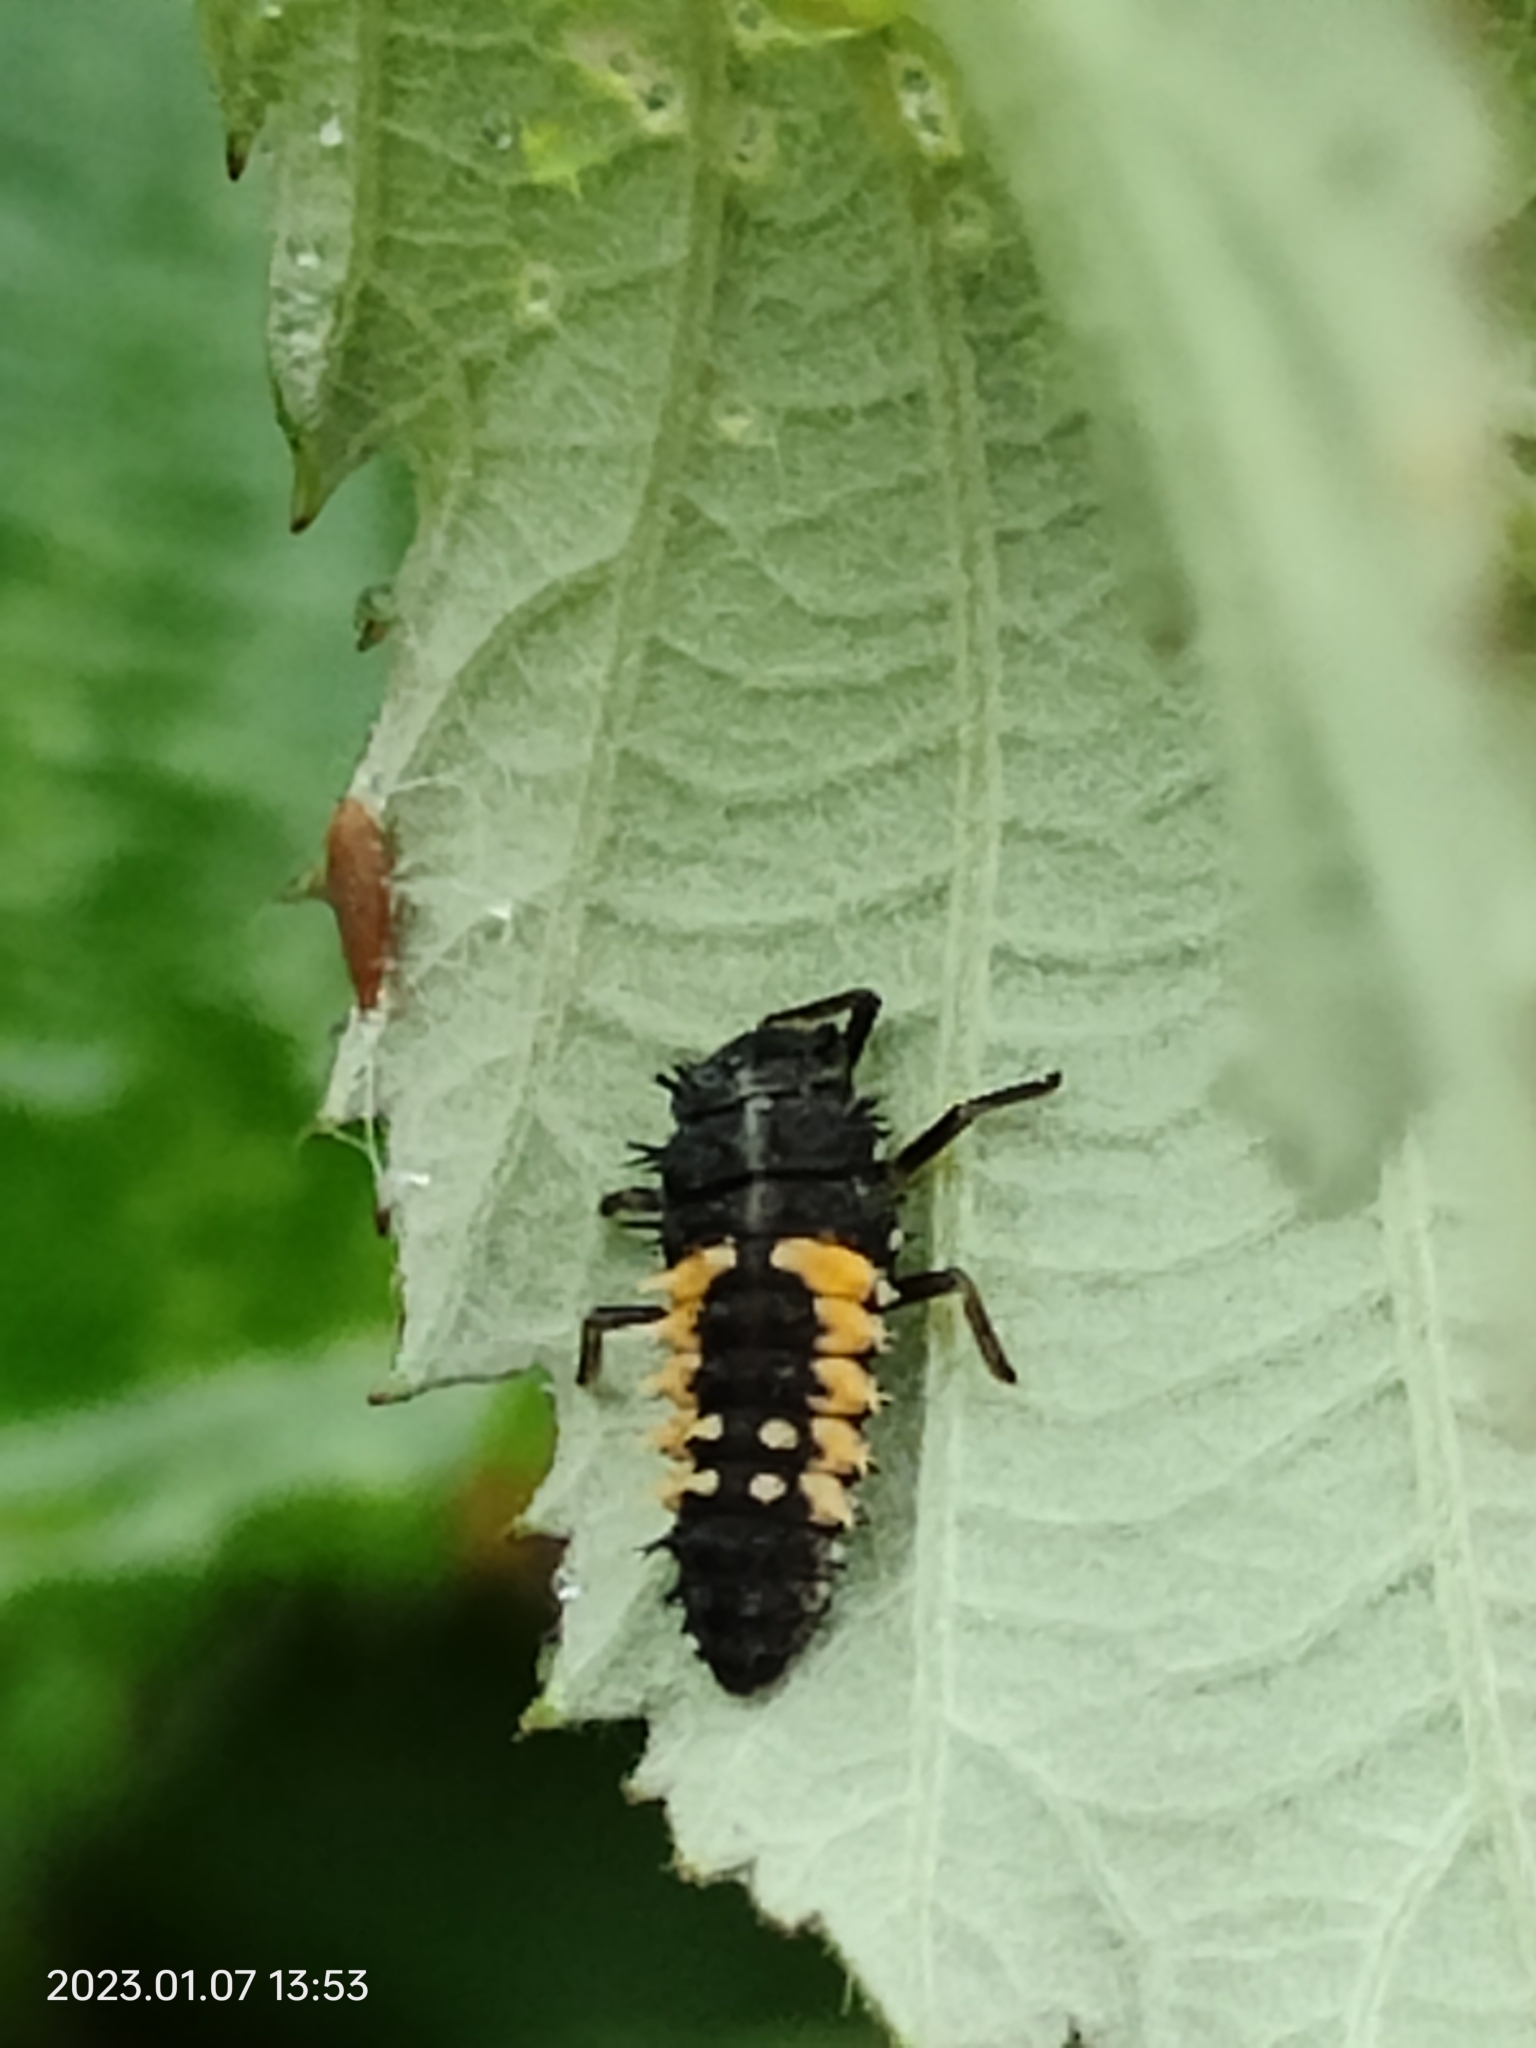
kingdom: Animalia
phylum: Arthropoda
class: Insecta
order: Coleoptera
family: Coccinellidae
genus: Harmonia
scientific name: Harmonia axyridis
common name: Harlequin ladybird
